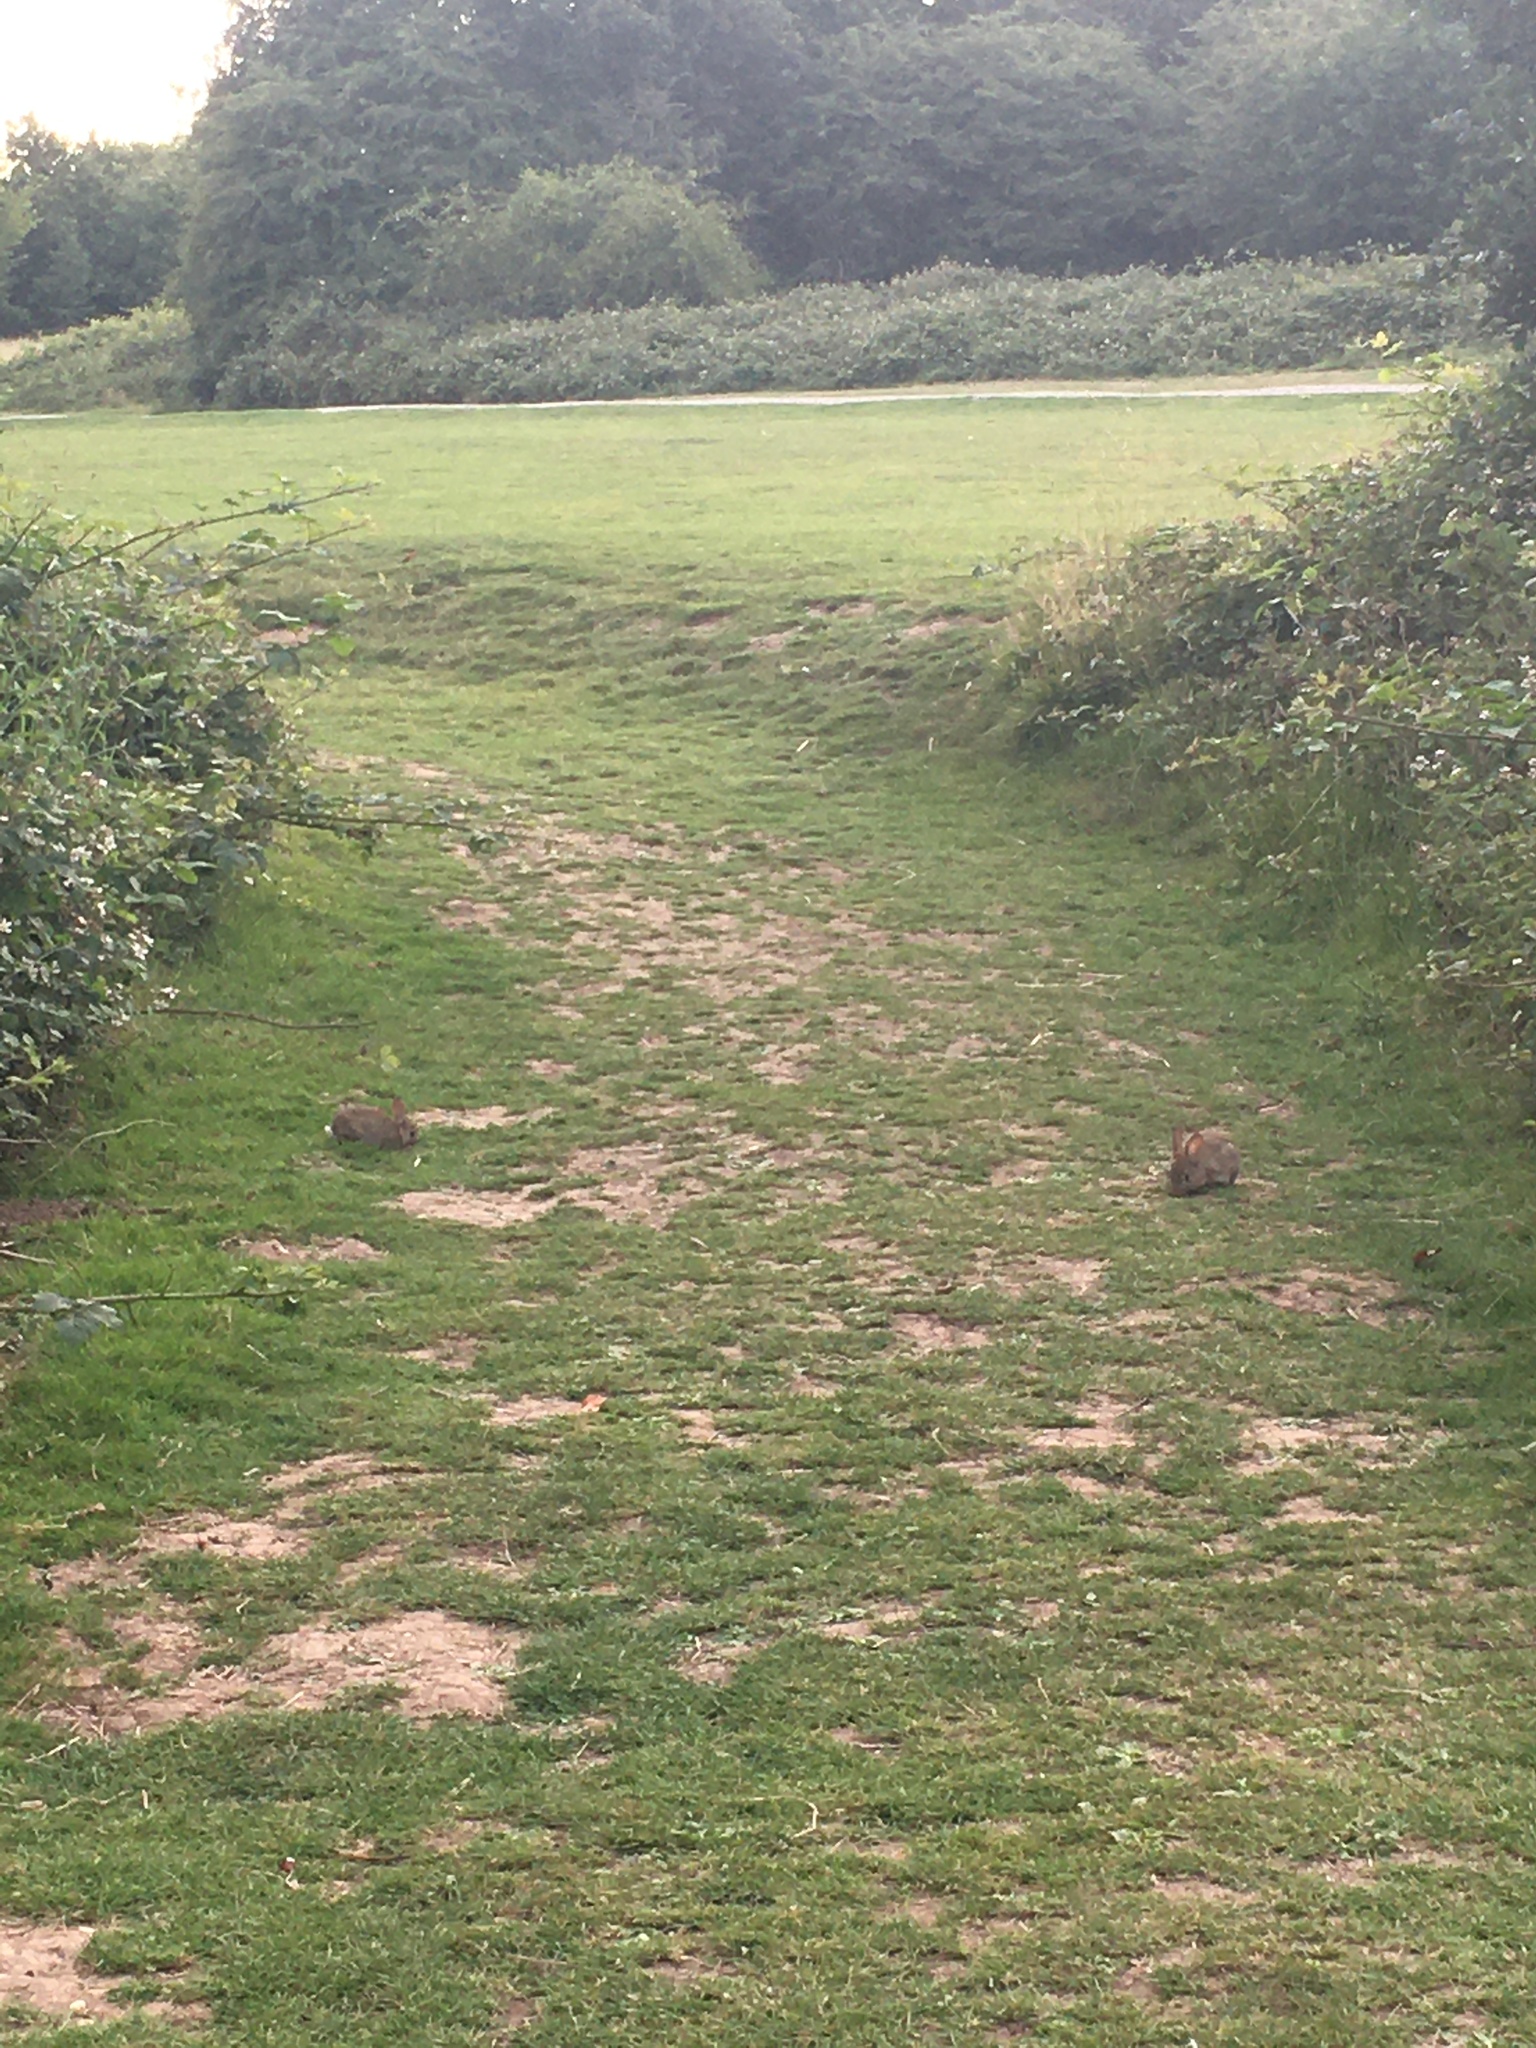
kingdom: Animalia
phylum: Chordata
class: Mammalia
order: Lagomorpha
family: Leporidae
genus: Oryctolagus
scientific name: Oryctolagus cuniculus
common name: European rabbit
